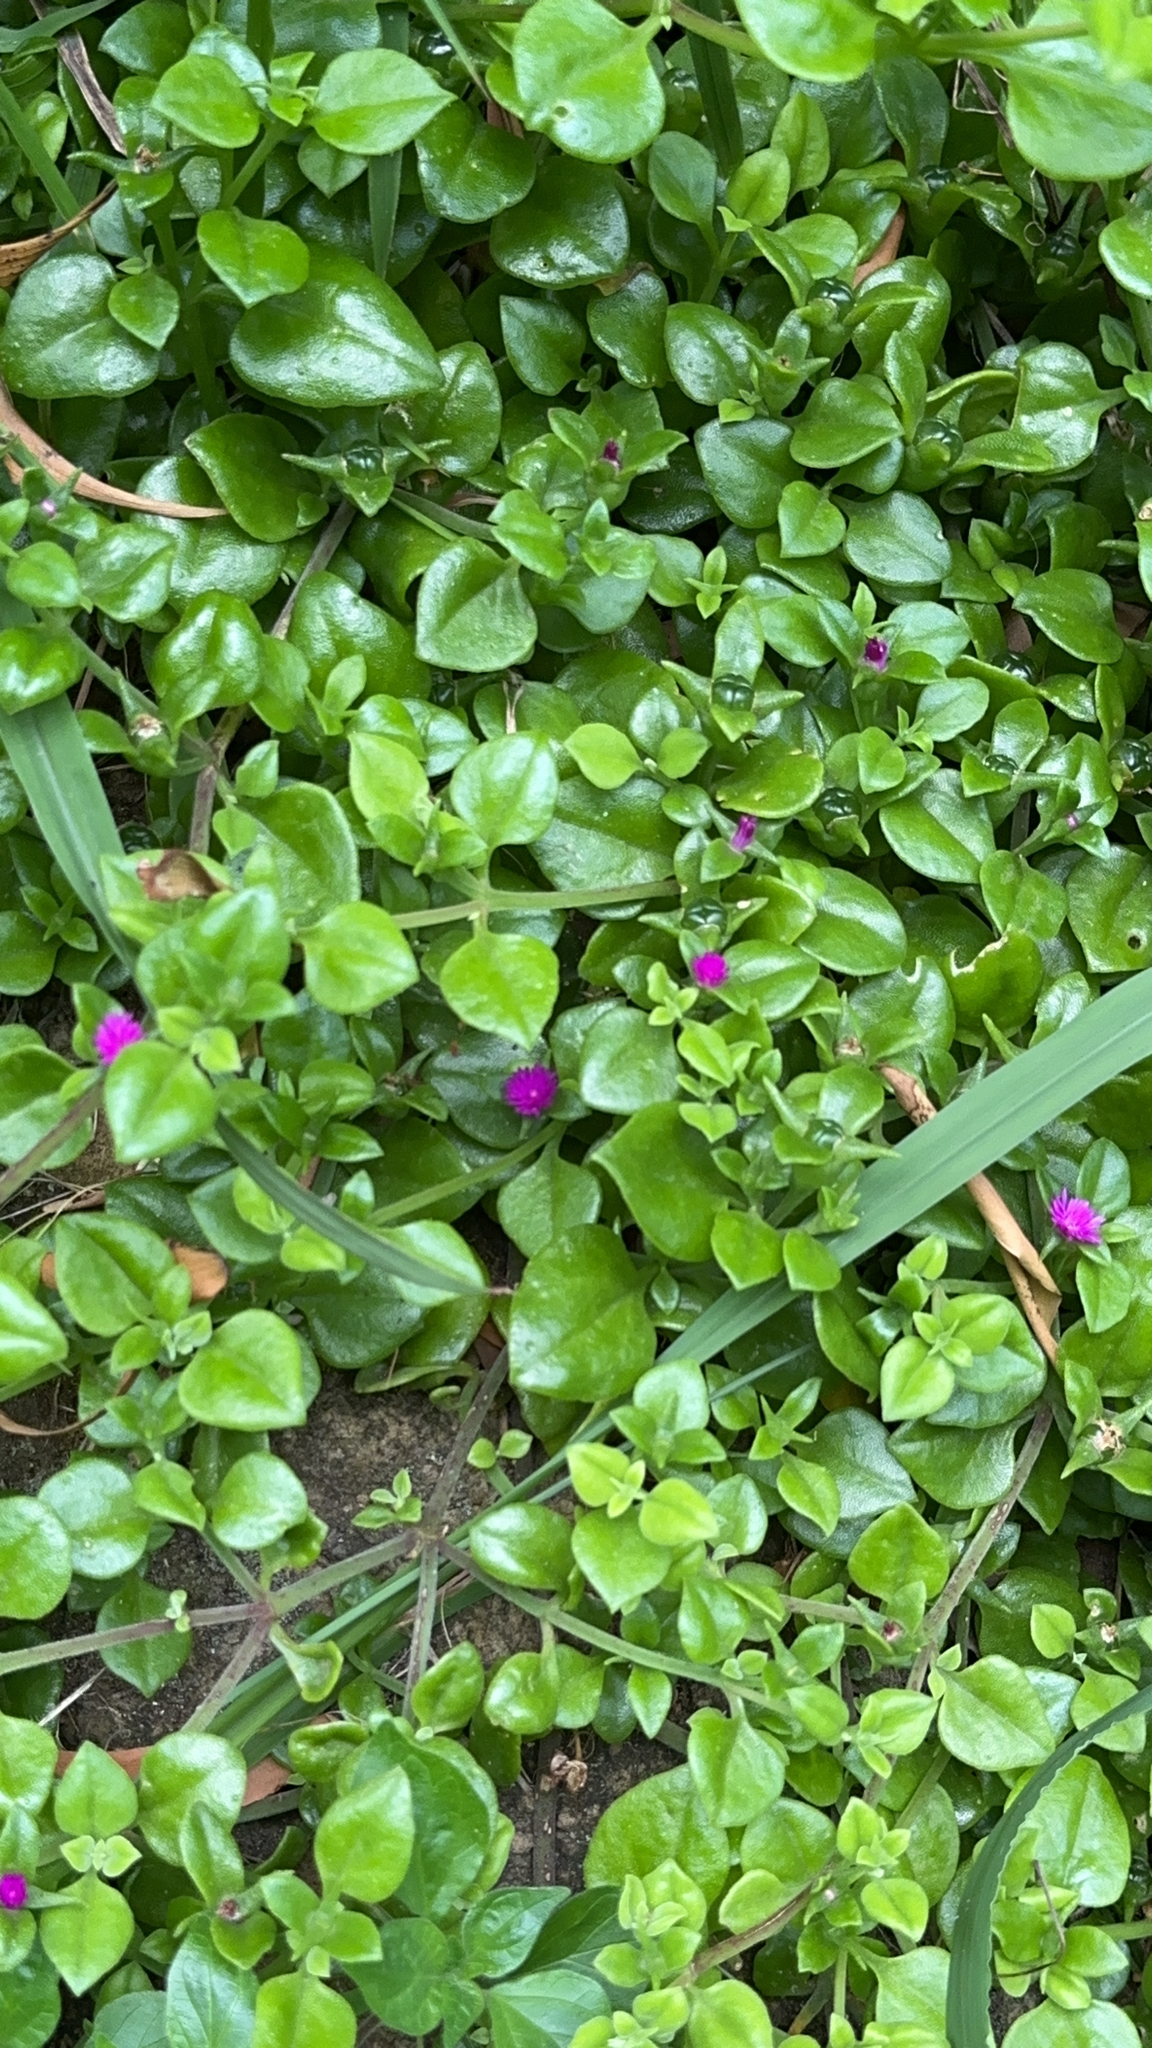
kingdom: Plantae
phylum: Tracheophyta
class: Magnoliopsida
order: Caryophyllales
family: Aizoaceae
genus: Mesembryanthemum
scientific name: Mesembryanthemum cordifolium
